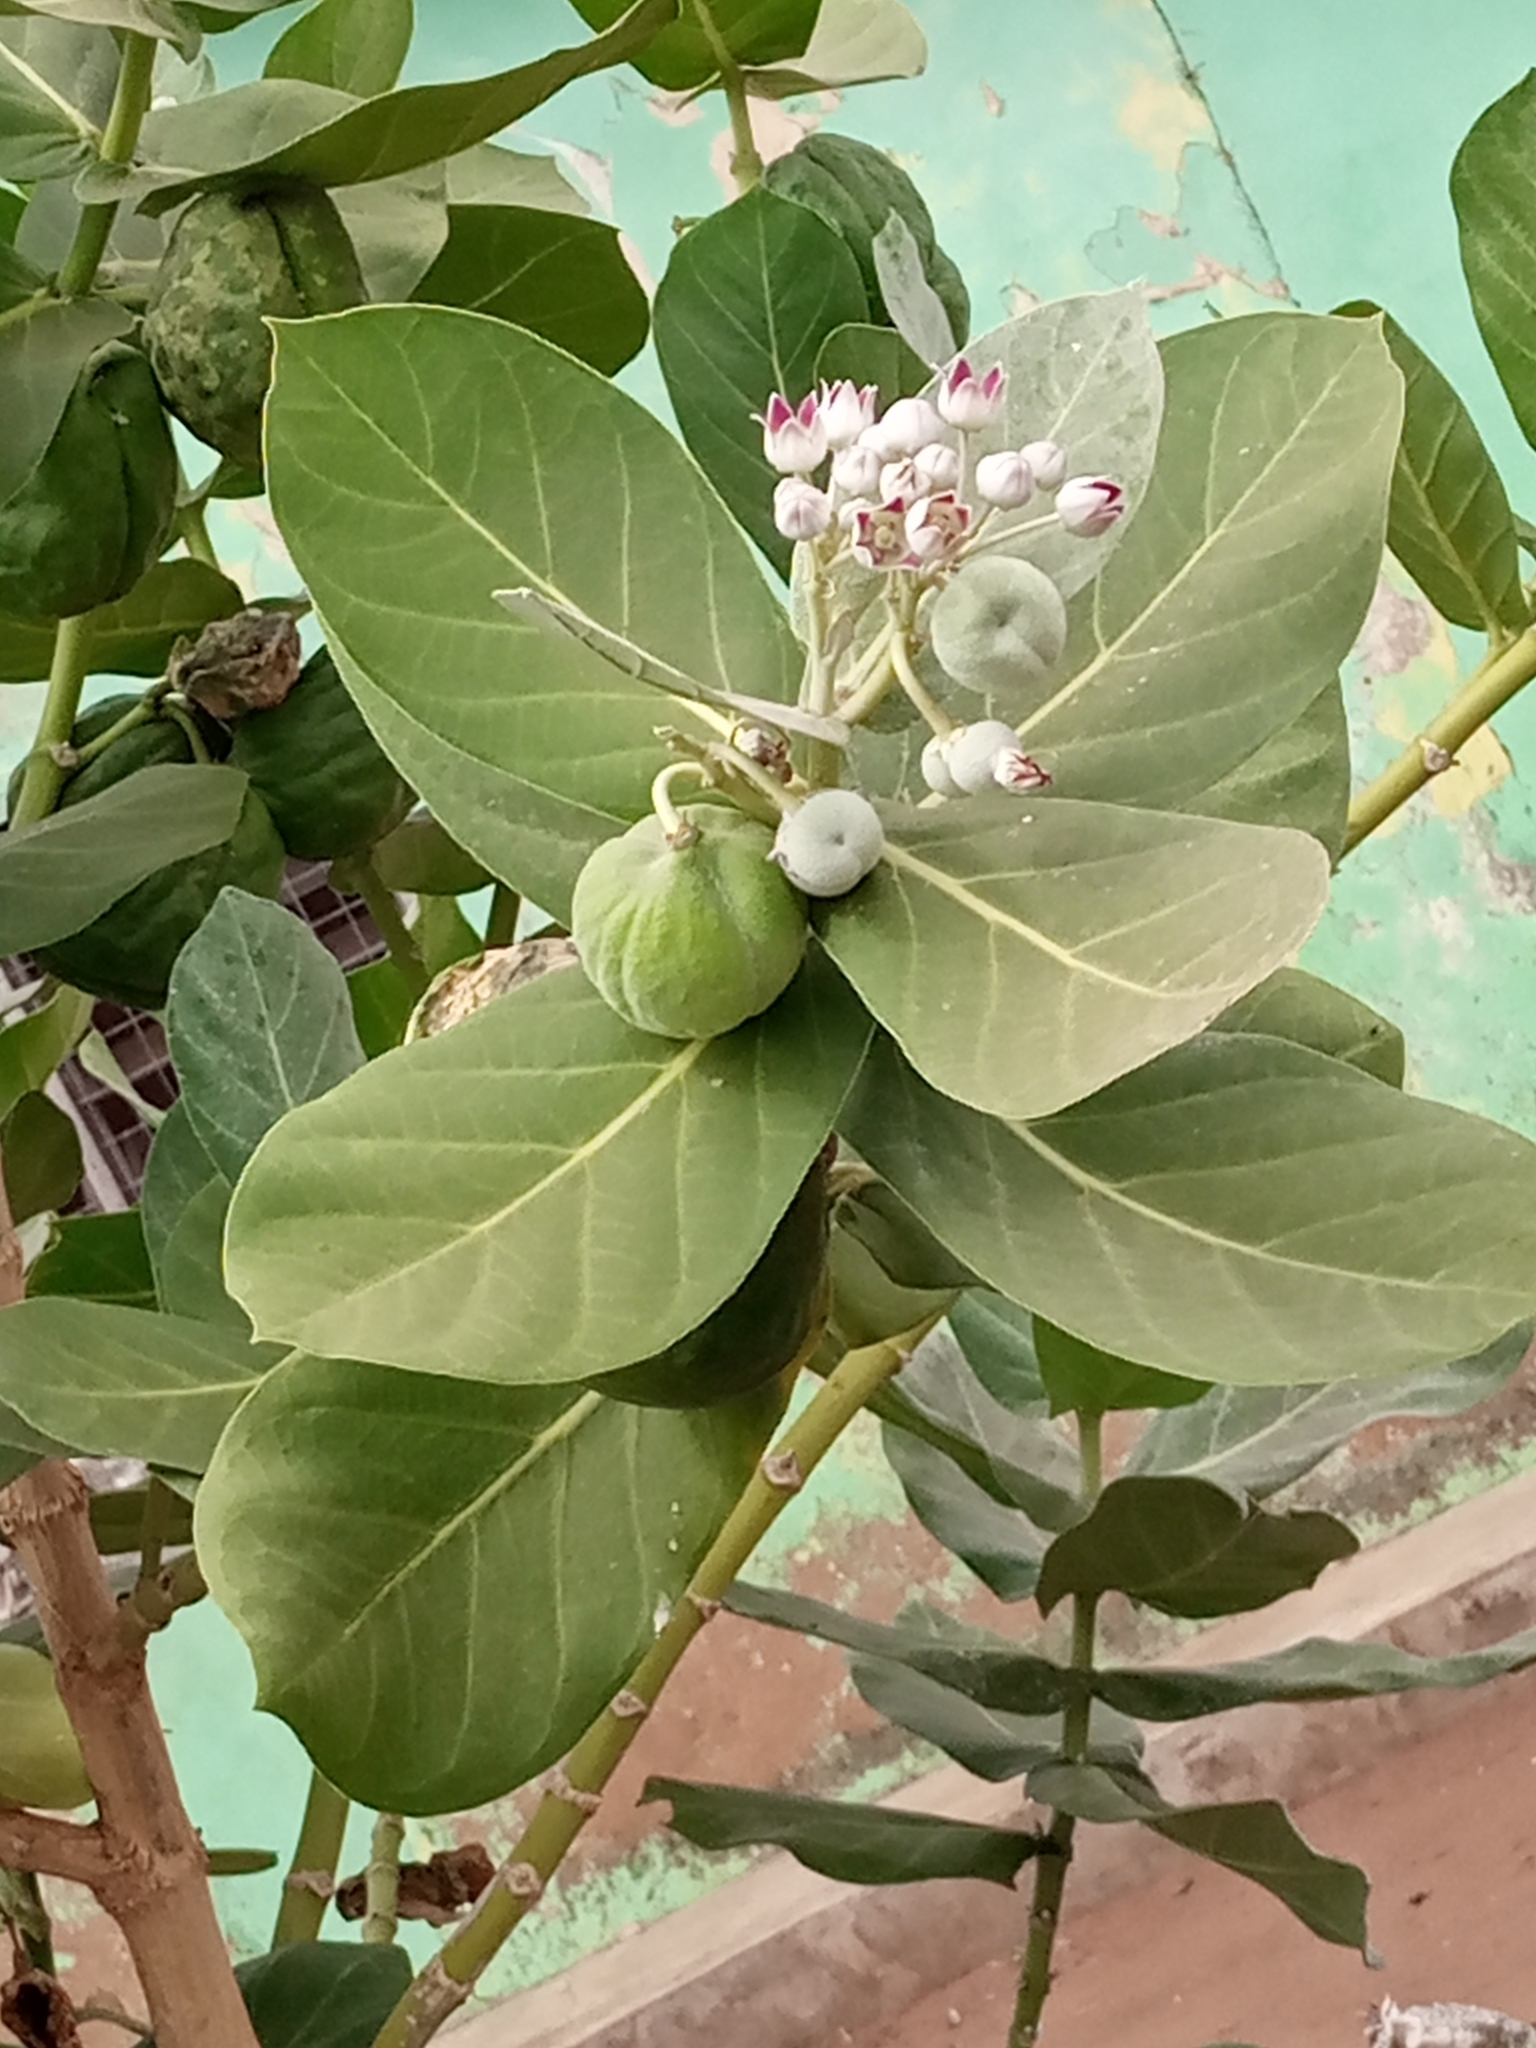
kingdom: Plantae
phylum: Tracheophyta
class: Magnoliopsida
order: Gentianales
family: Apocynaceae
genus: Calotropis
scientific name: Calotropis procera
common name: Roostertree
